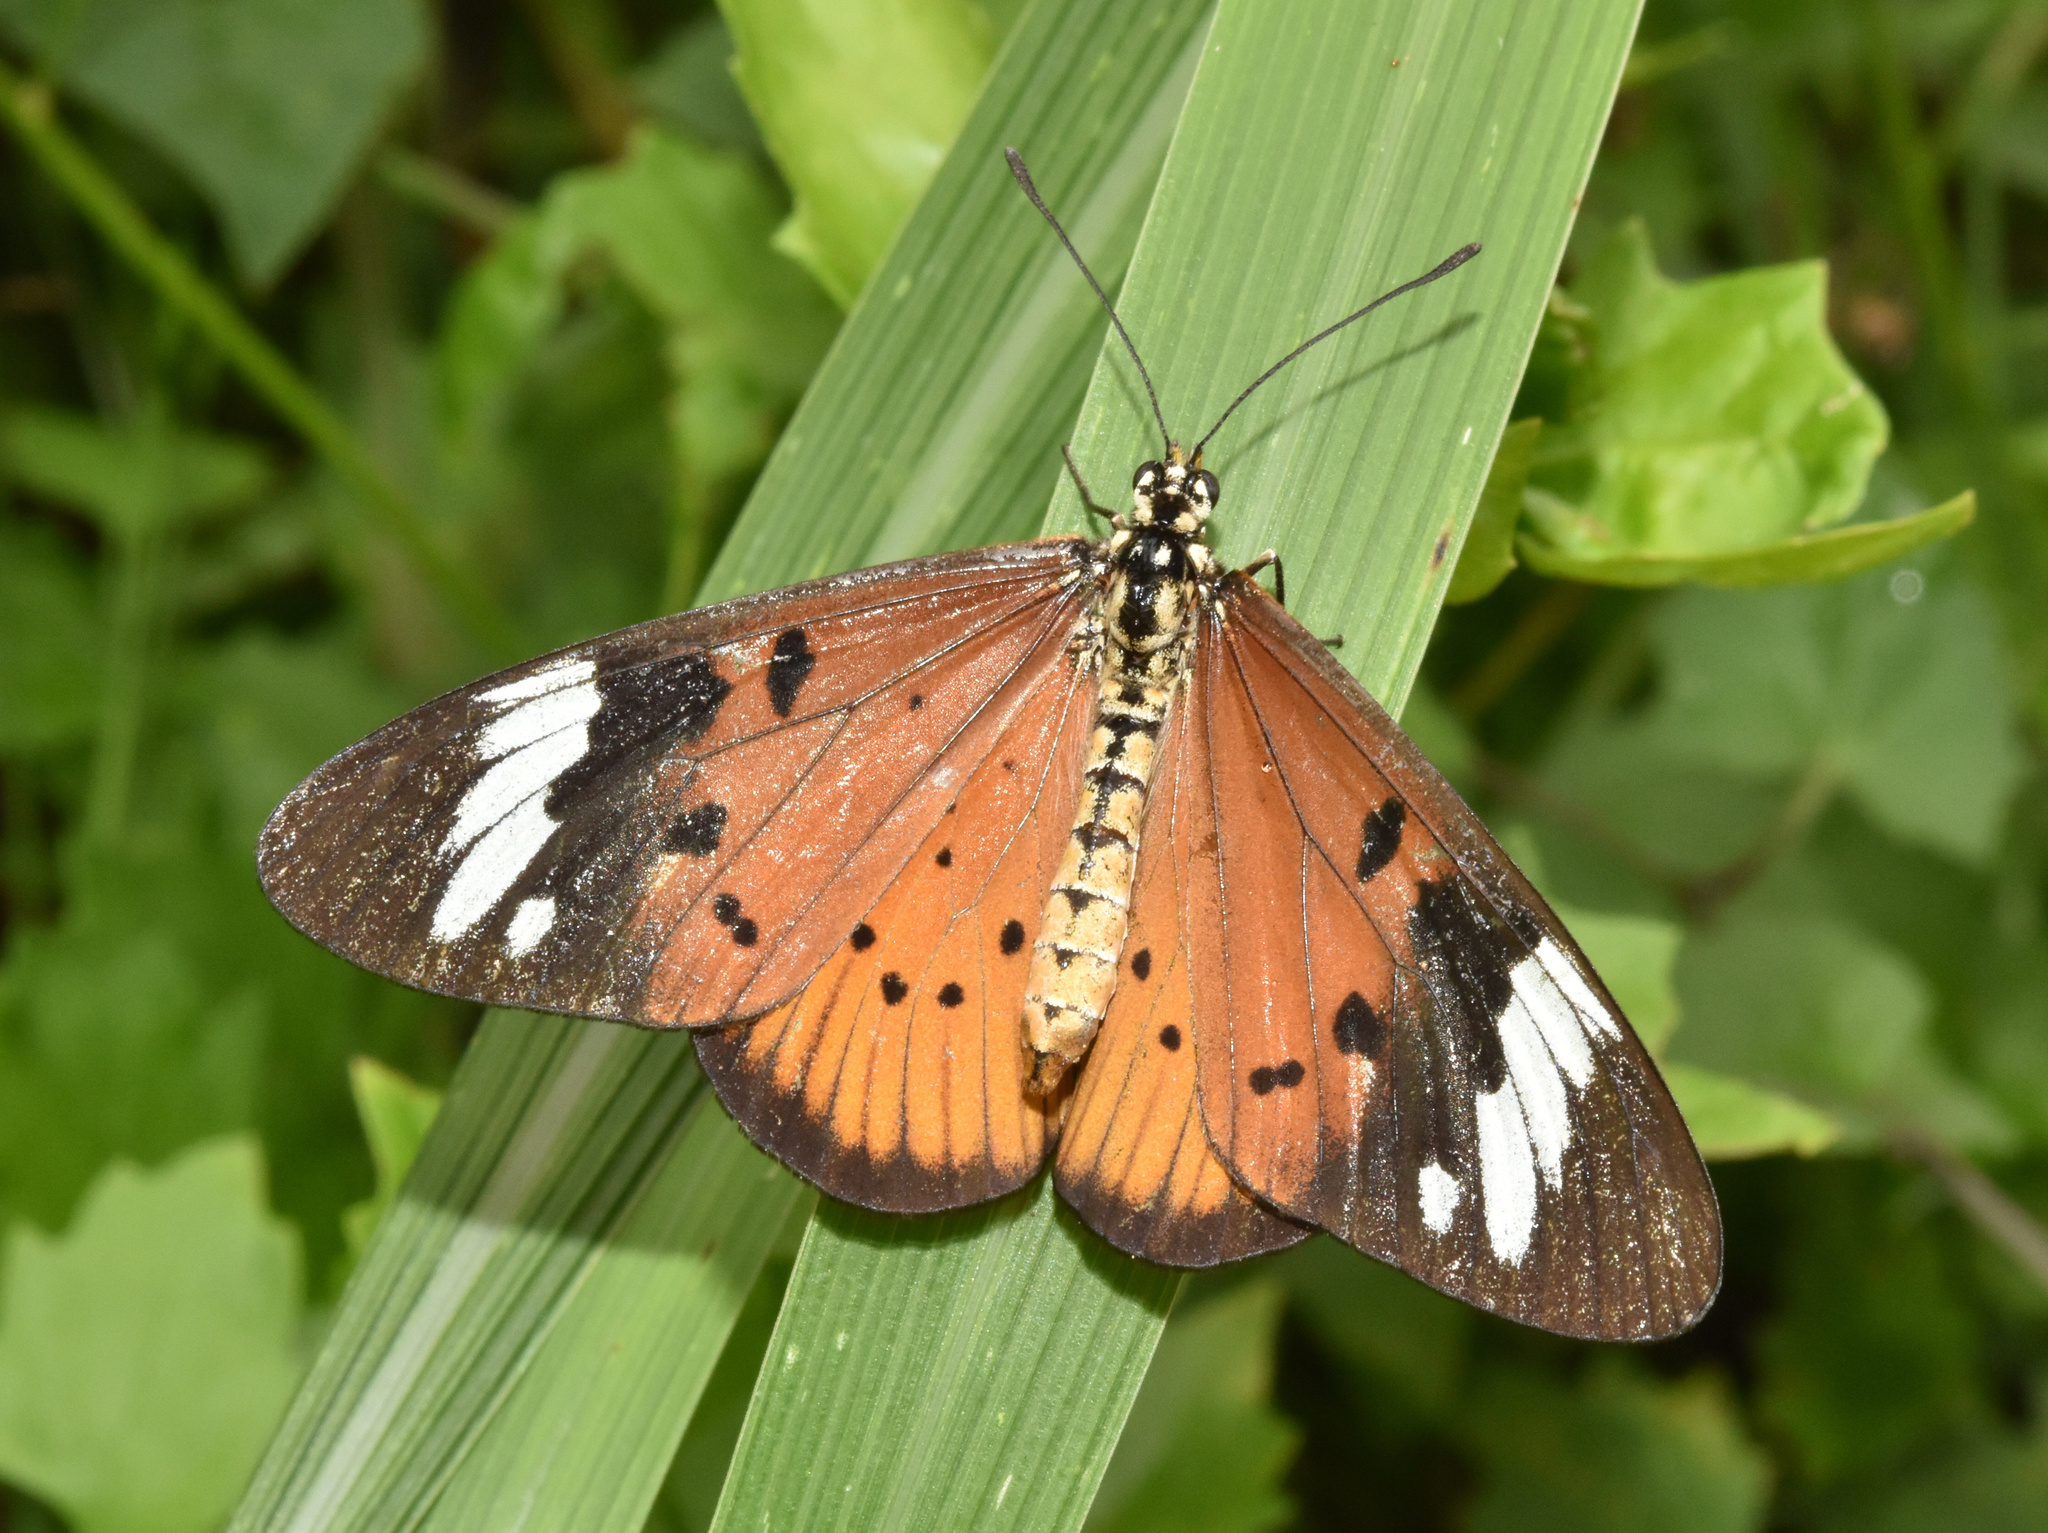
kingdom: Animalia
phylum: Arthropoda
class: Insecta
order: Lepidoptera
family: Nymphalidae
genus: Acraea
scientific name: Acraea Telchinia encedon
